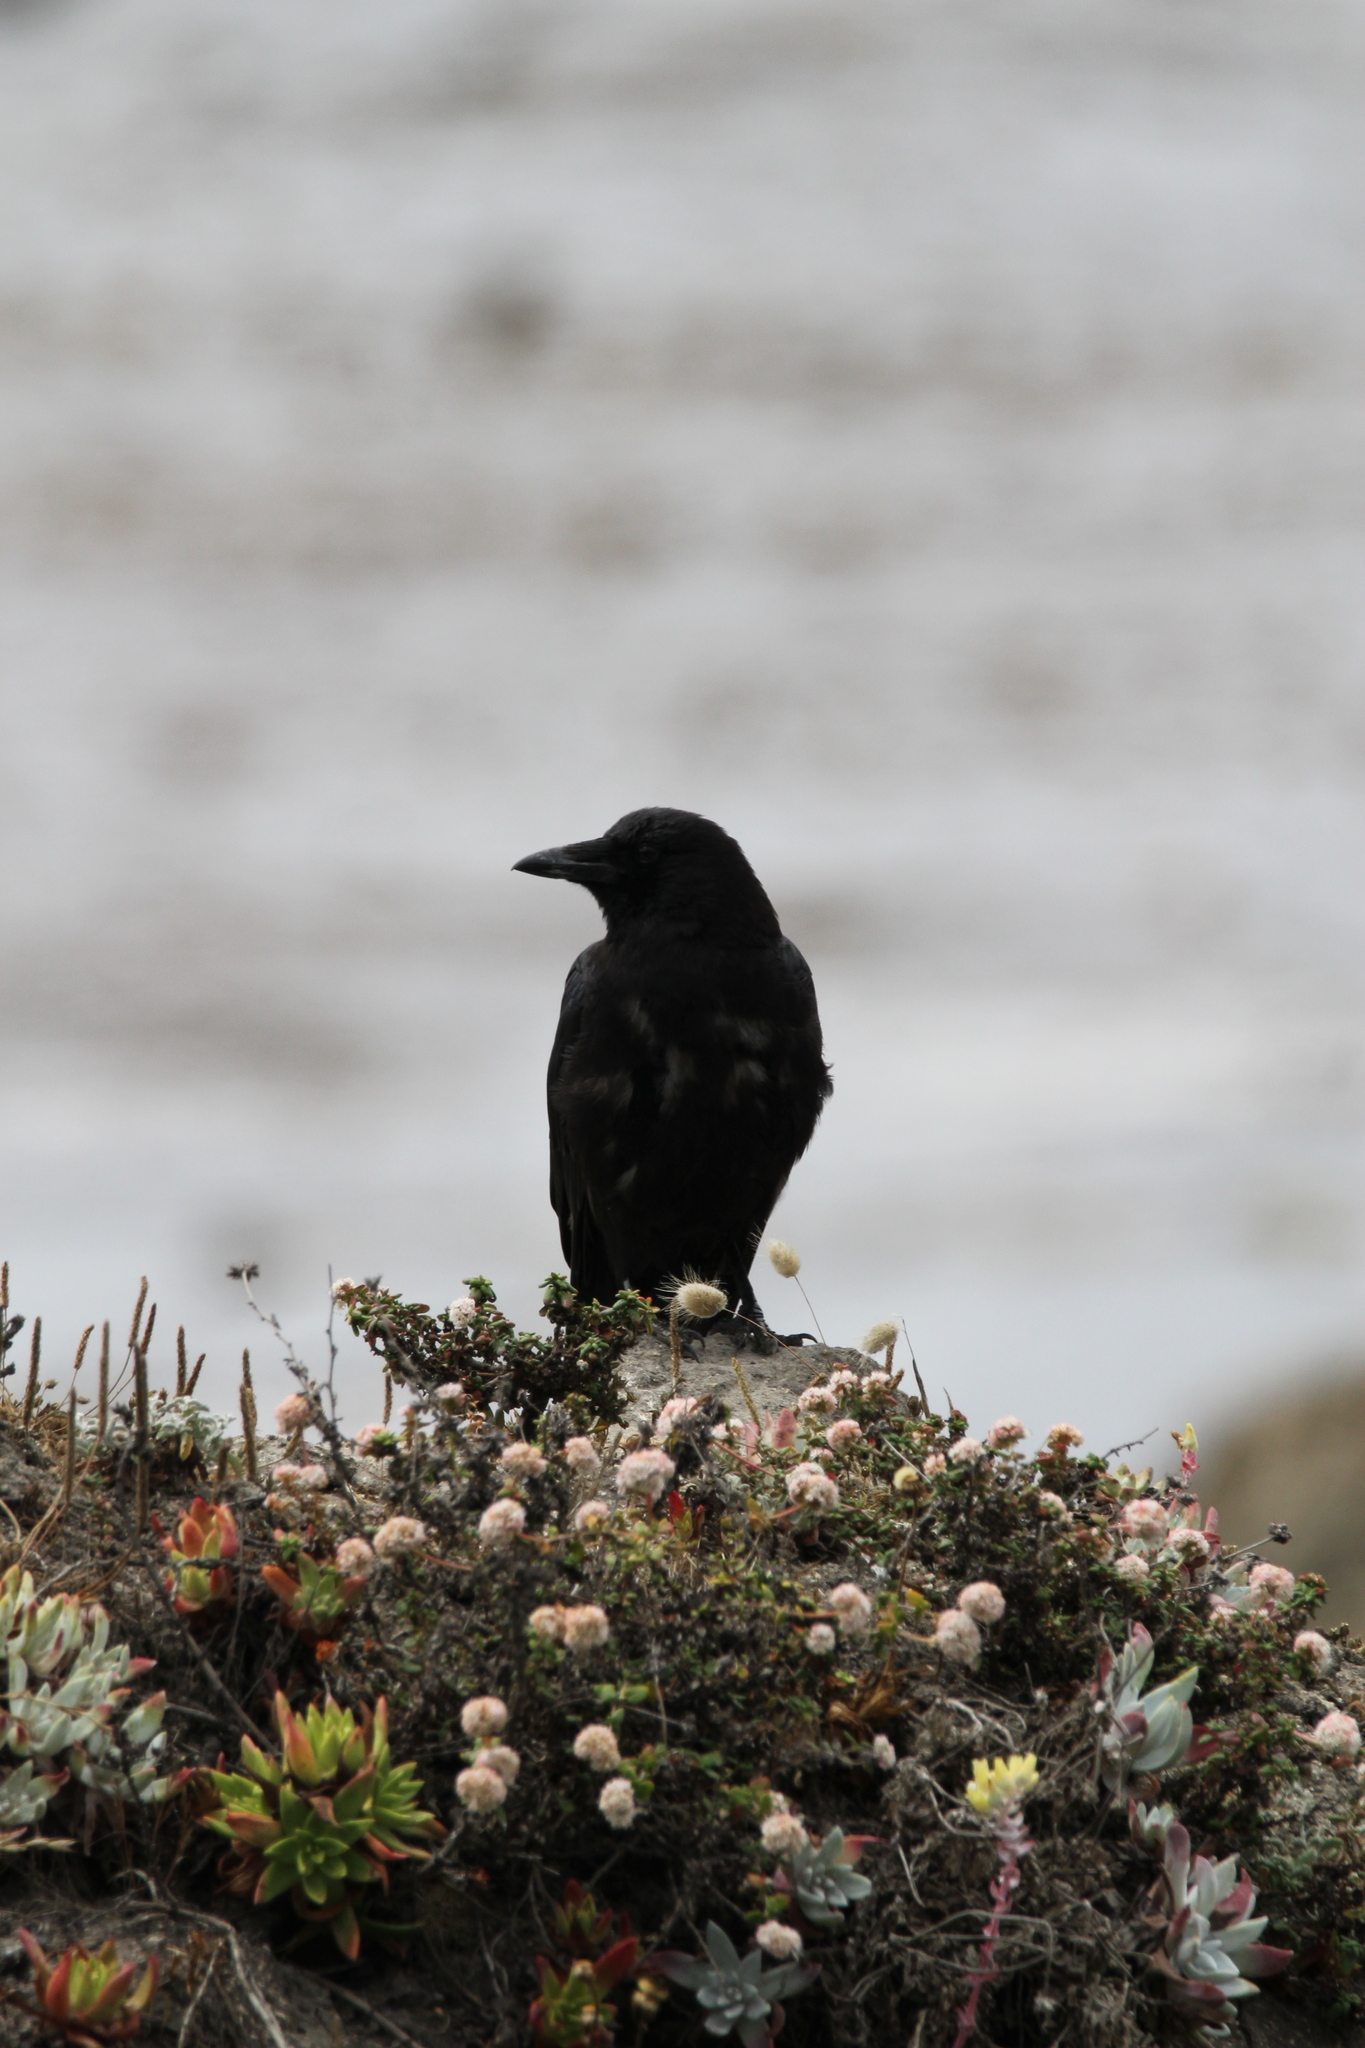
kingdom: Animalia
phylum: Chordata
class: Aves
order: Passeriformes
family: Corvidae
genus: Corvus
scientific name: Corvus brachyrhynchos
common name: American crow
